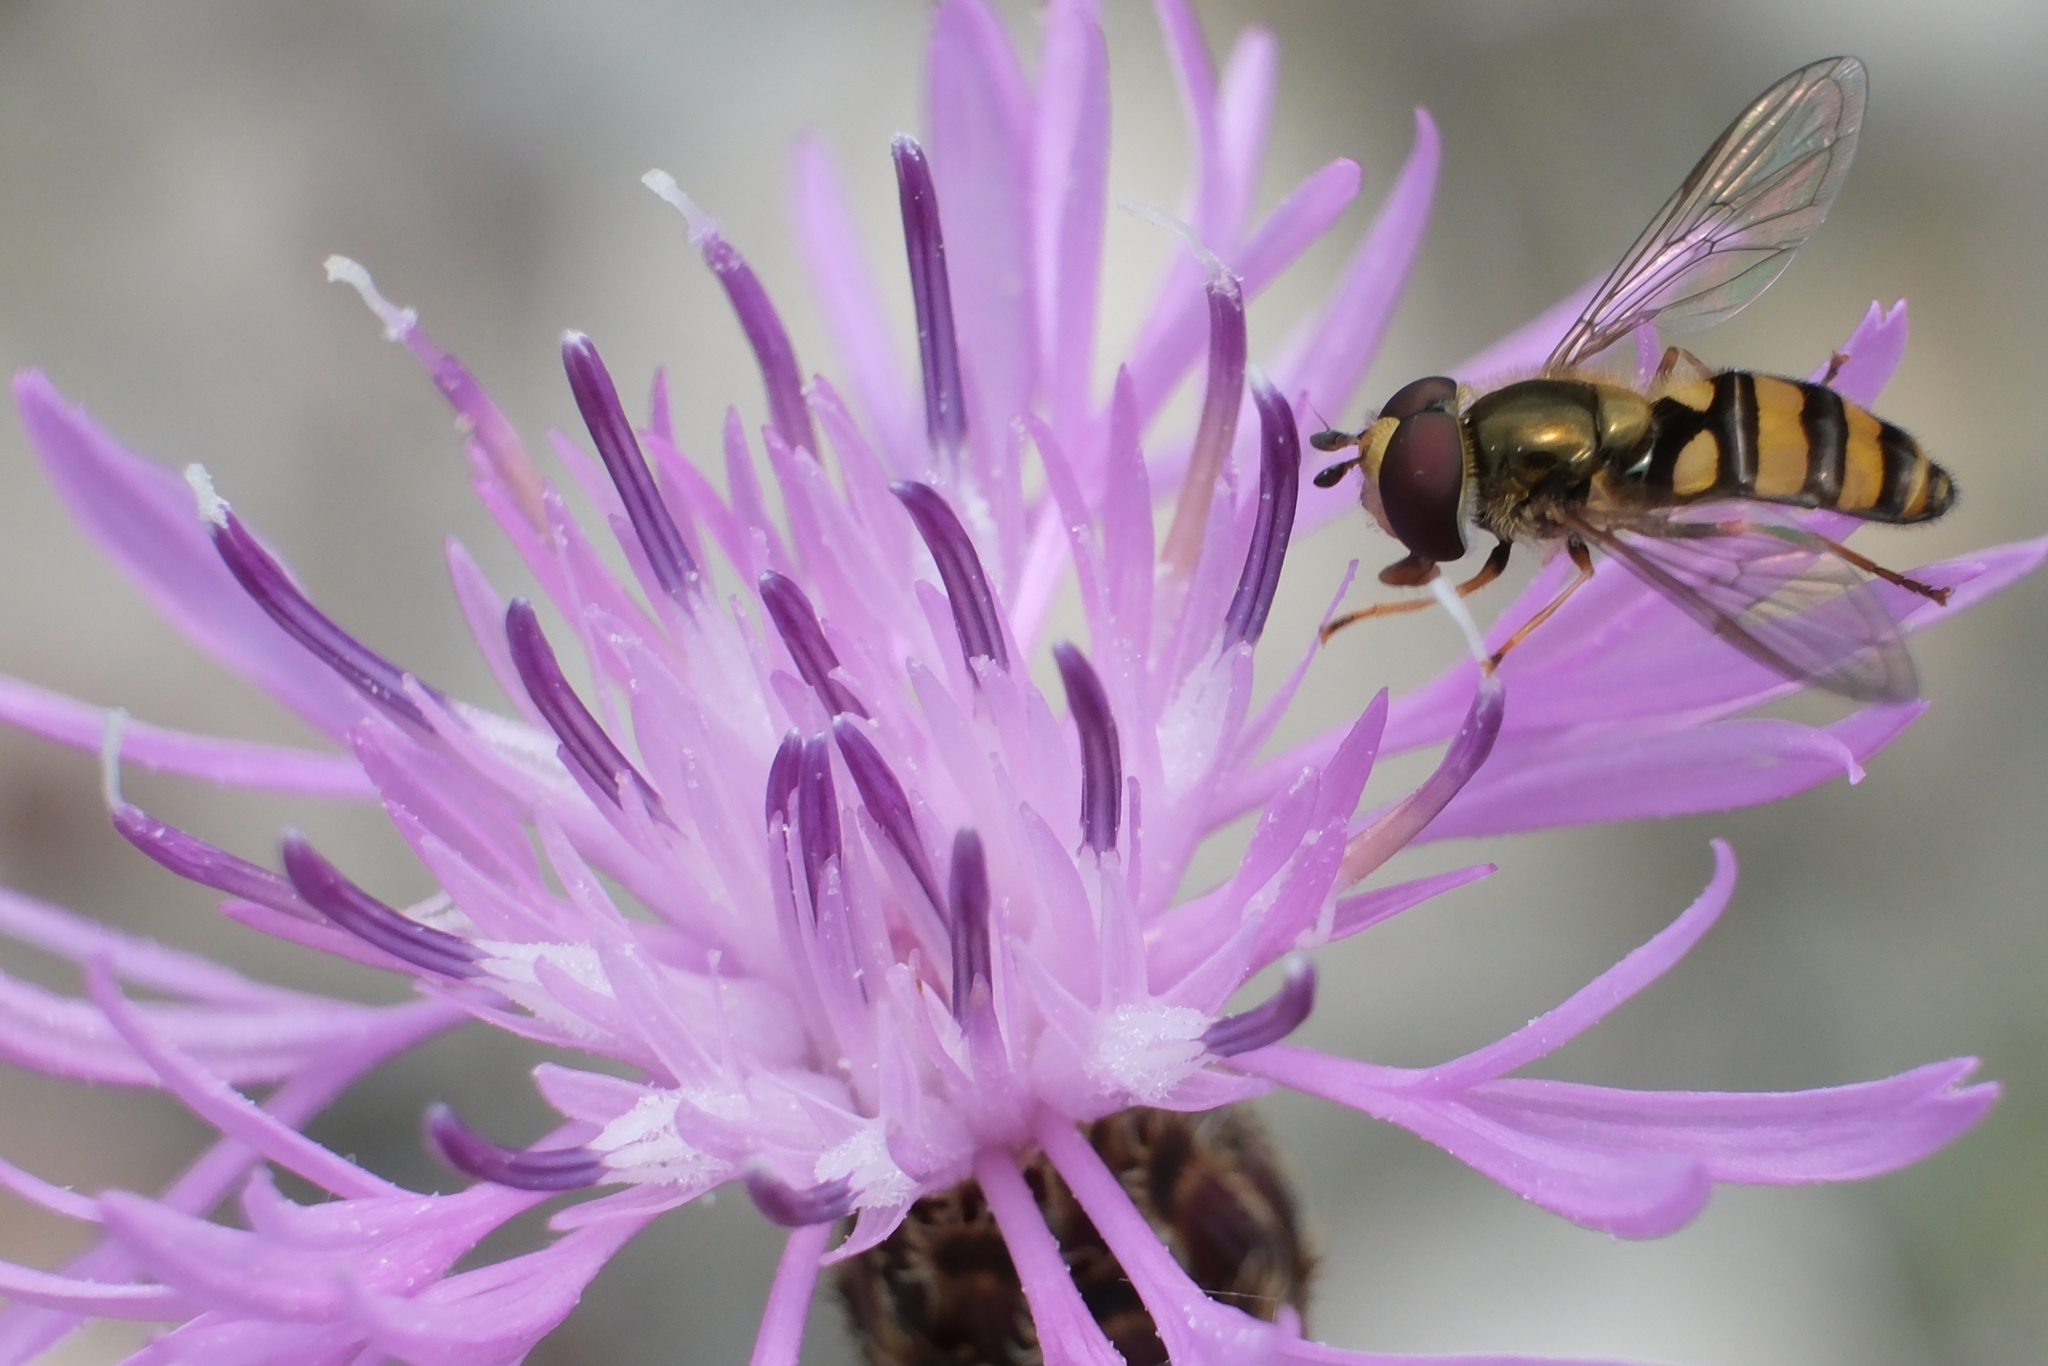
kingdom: Animalia
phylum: Arthropoda
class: Insecta
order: Diptera
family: Syrphidae
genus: Eupeodes
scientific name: Eupeodes
